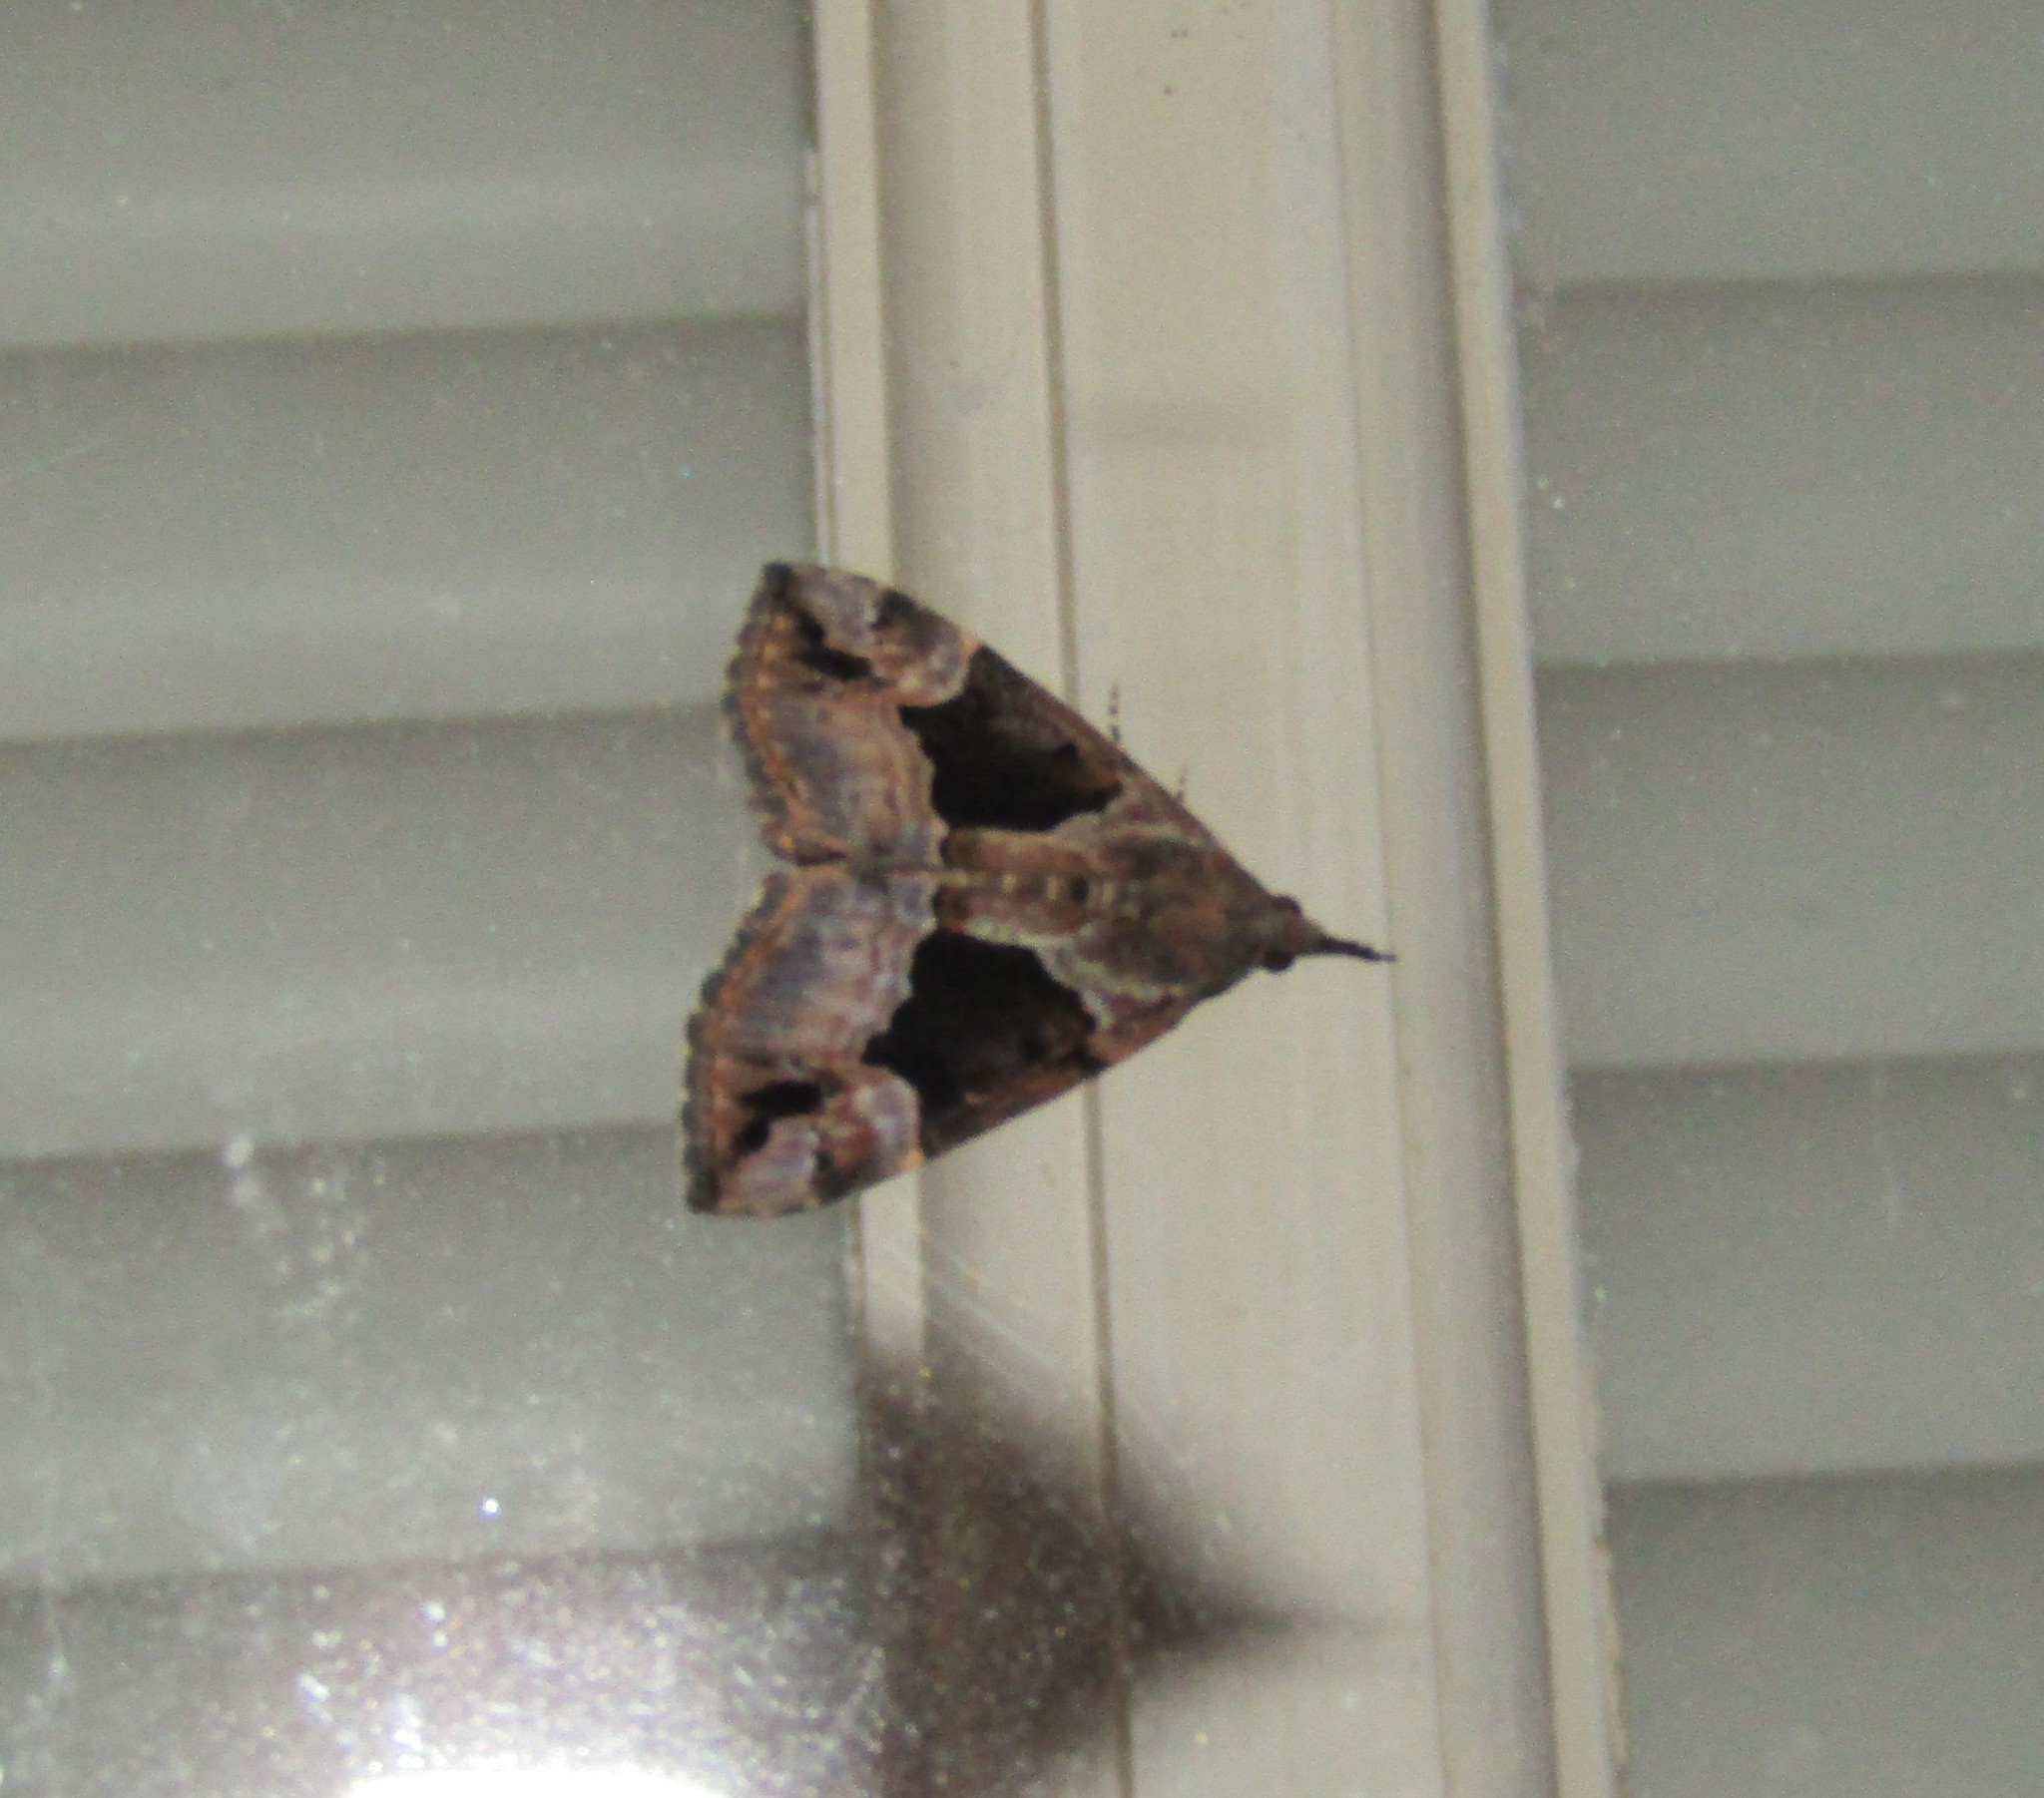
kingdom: Animalia
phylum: Arthropoda
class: Insecta
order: Lepidoptera
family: Erebidae
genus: Hypena
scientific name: Hypena palparia
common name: Mottled bomolocha moth
